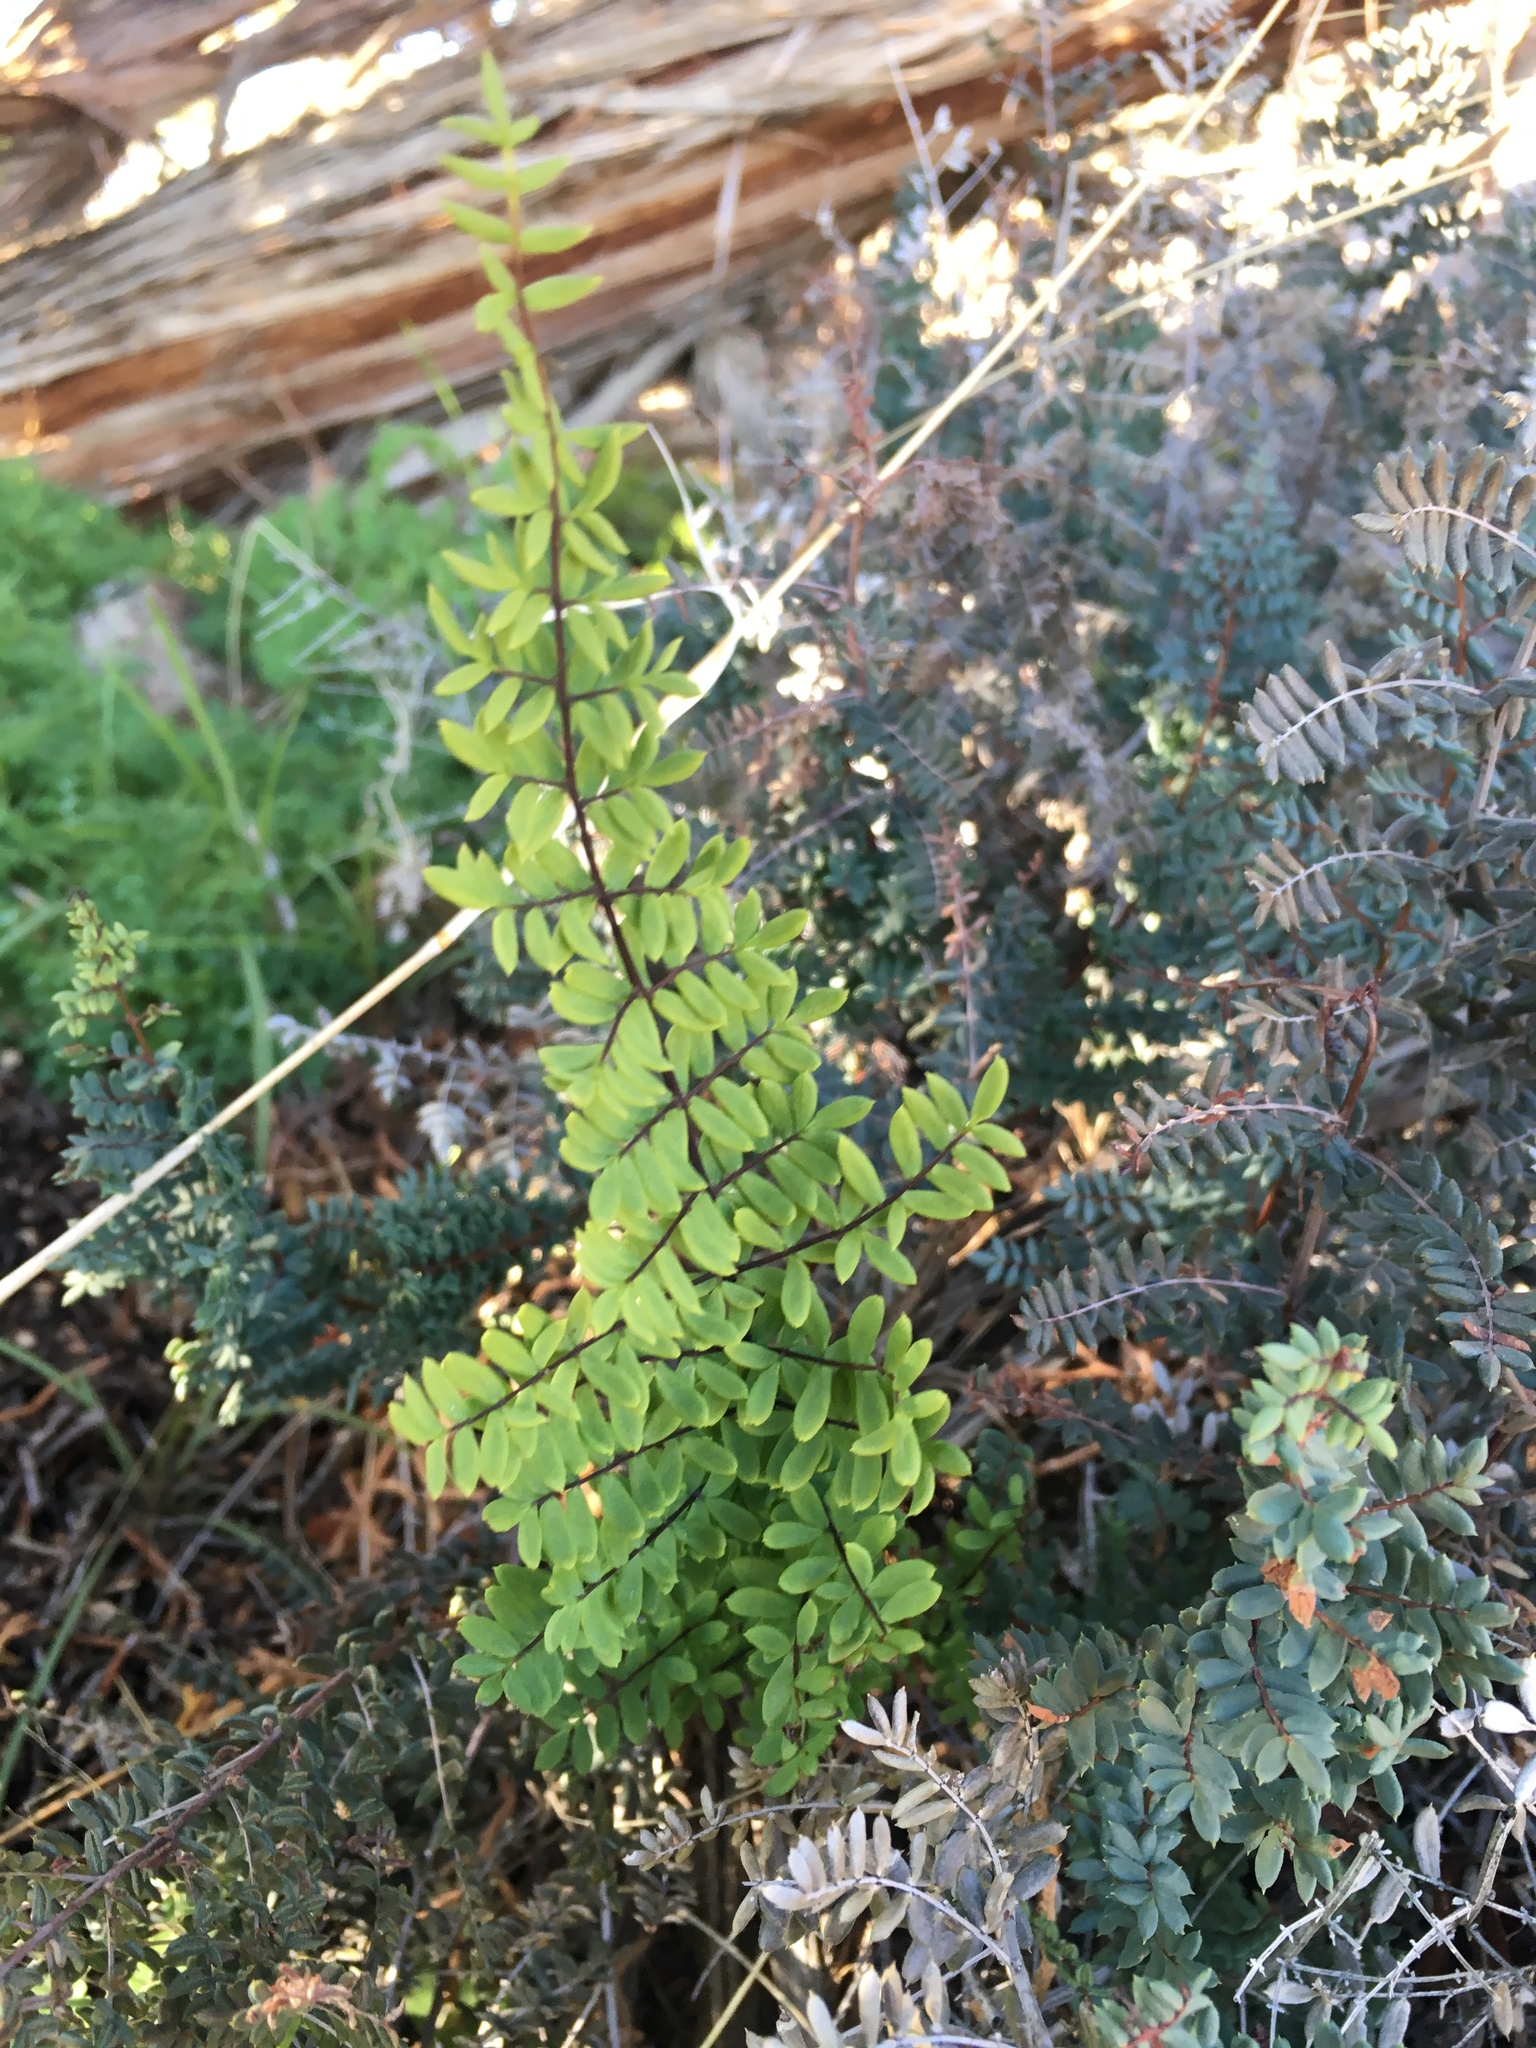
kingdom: Plantae
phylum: Tracheophyta
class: Polypodiopsida
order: Polypodiales
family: Pteridaceae
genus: Pellaea
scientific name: Pellaea mucronata
